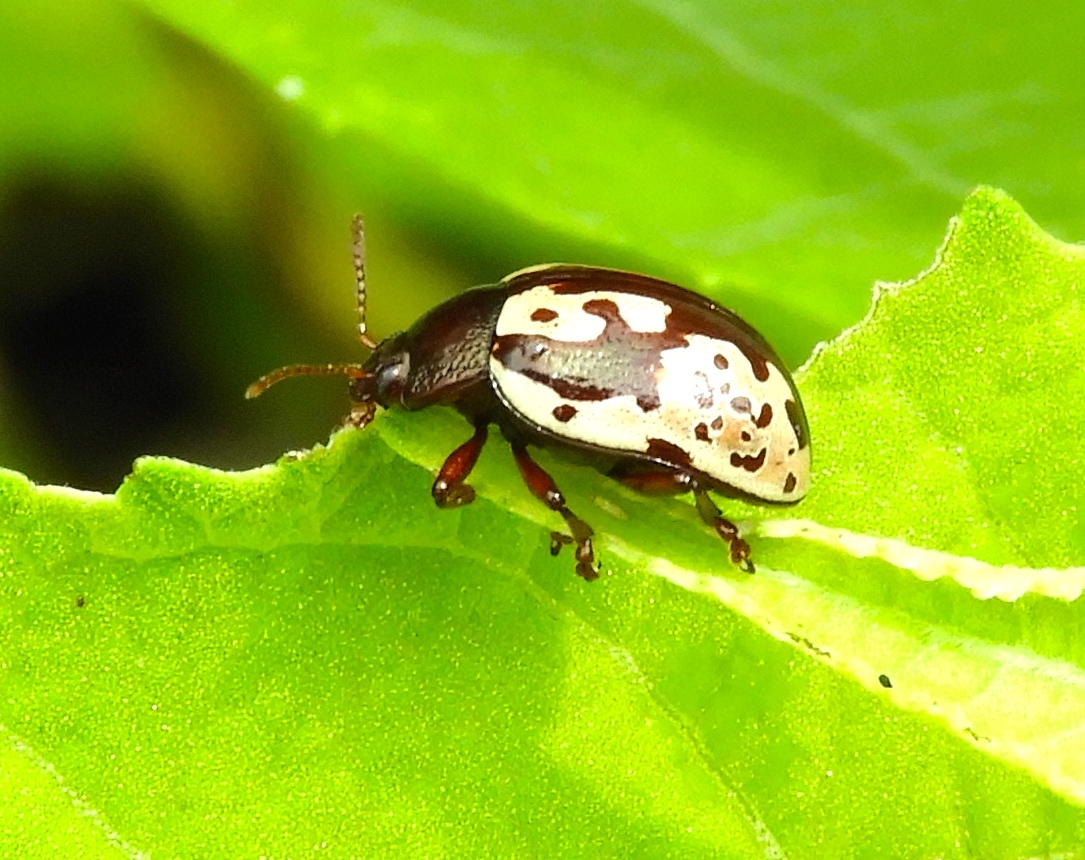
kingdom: Animalia
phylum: Arthropoda
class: Insecta
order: Coleoptera
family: Chrysomelidae
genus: Calligrapha
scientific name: Calligrapha intermedia
